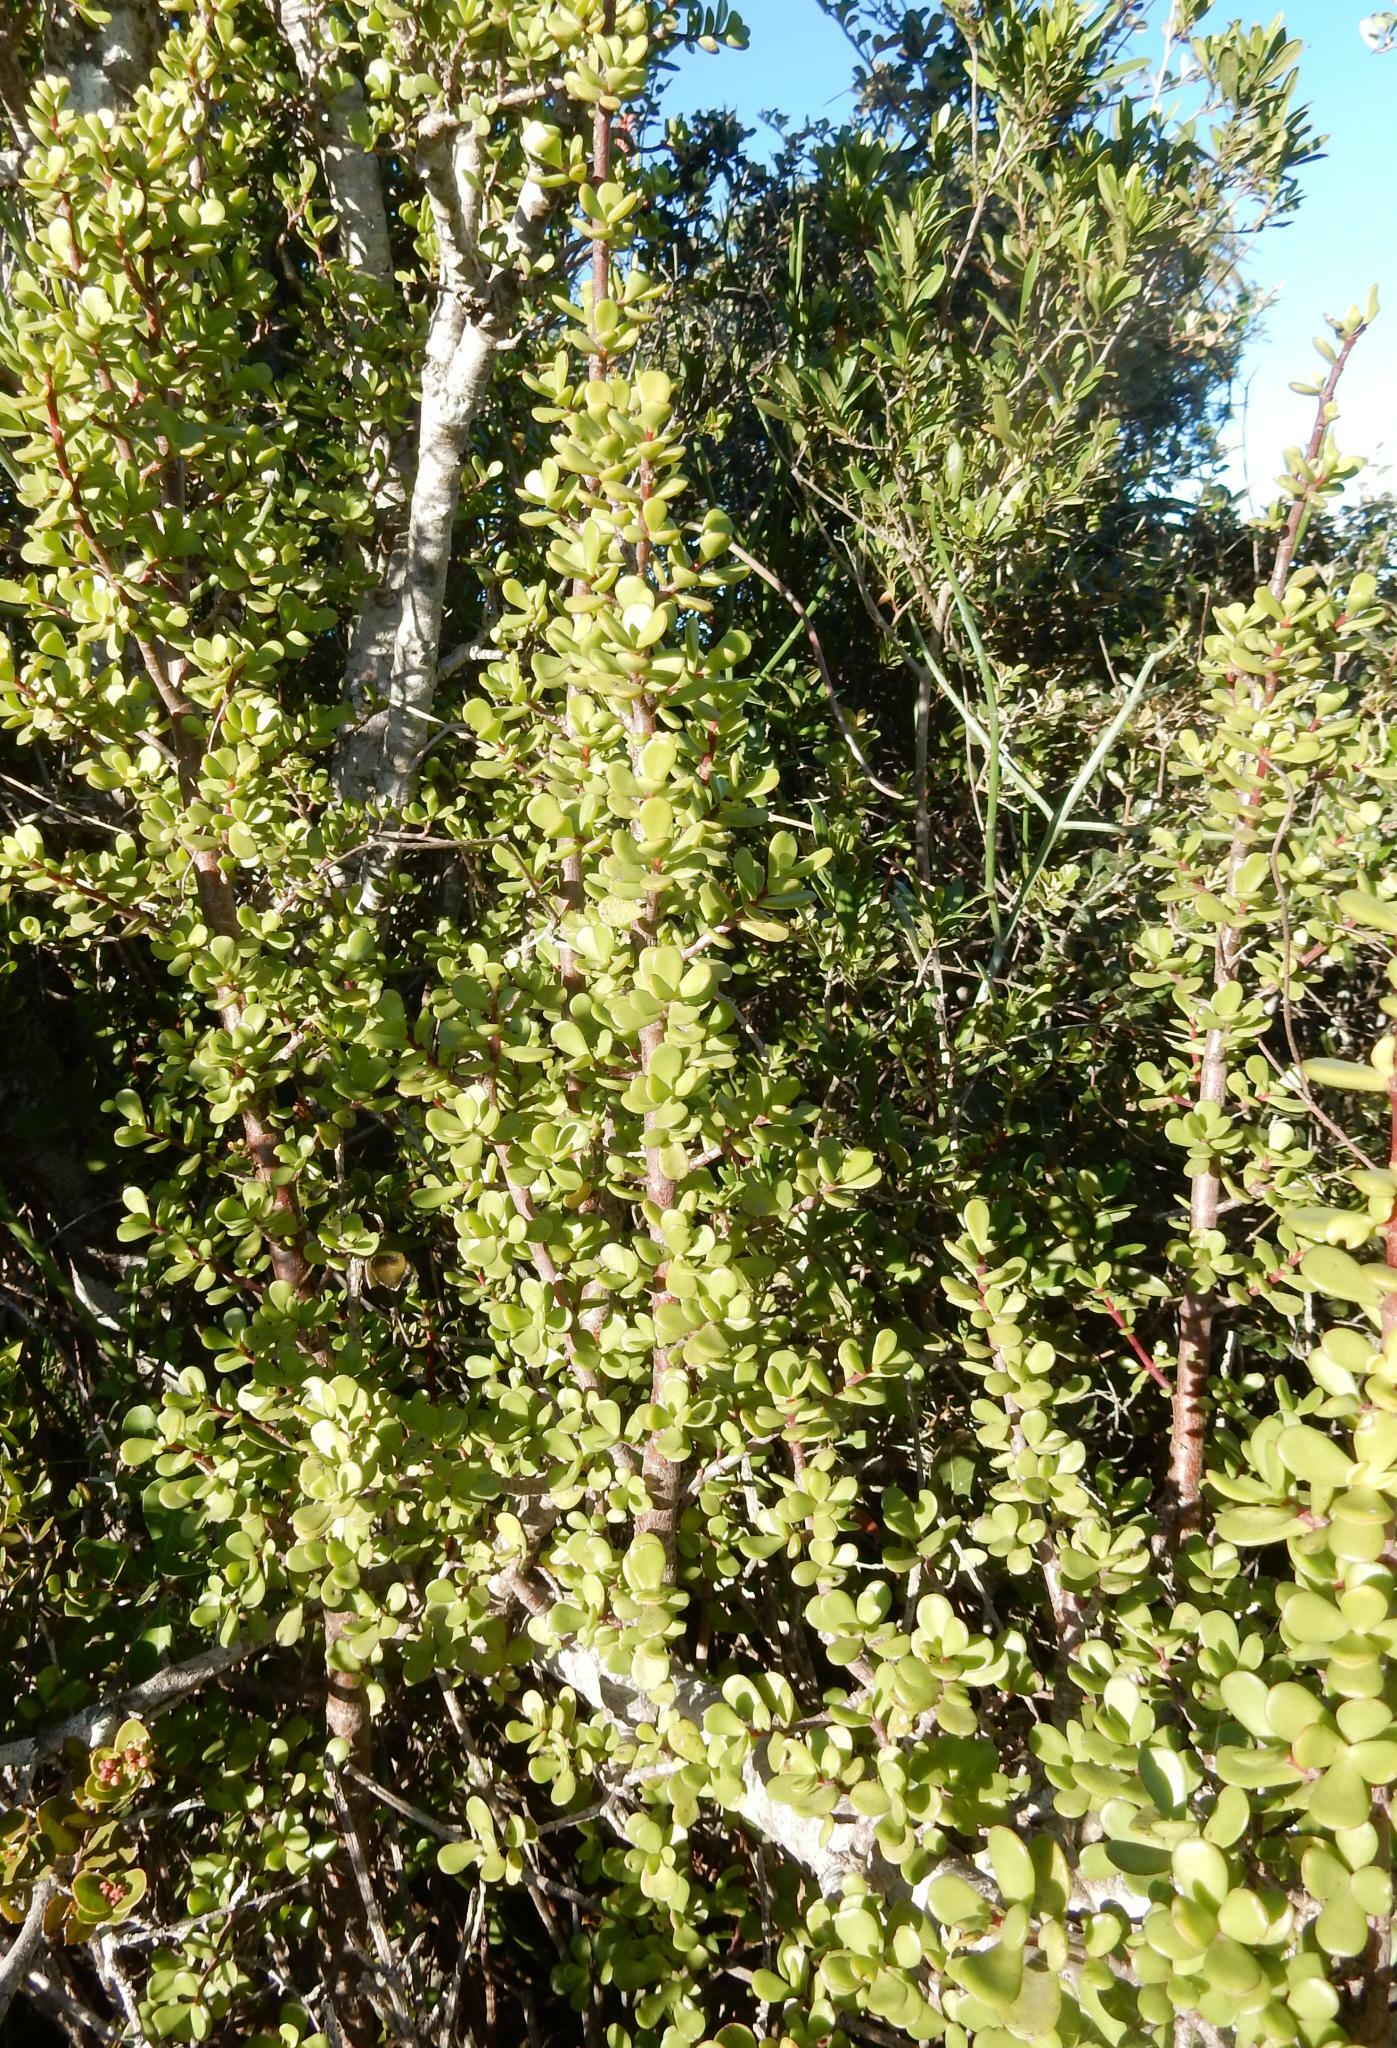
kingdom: Plantae
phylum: Tracheophyta
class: Magnoliopsida
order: Caryophyllales
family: Didiereaceae
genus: Portulacaria
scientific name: Portulacaria afra
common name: Elephant-bush
